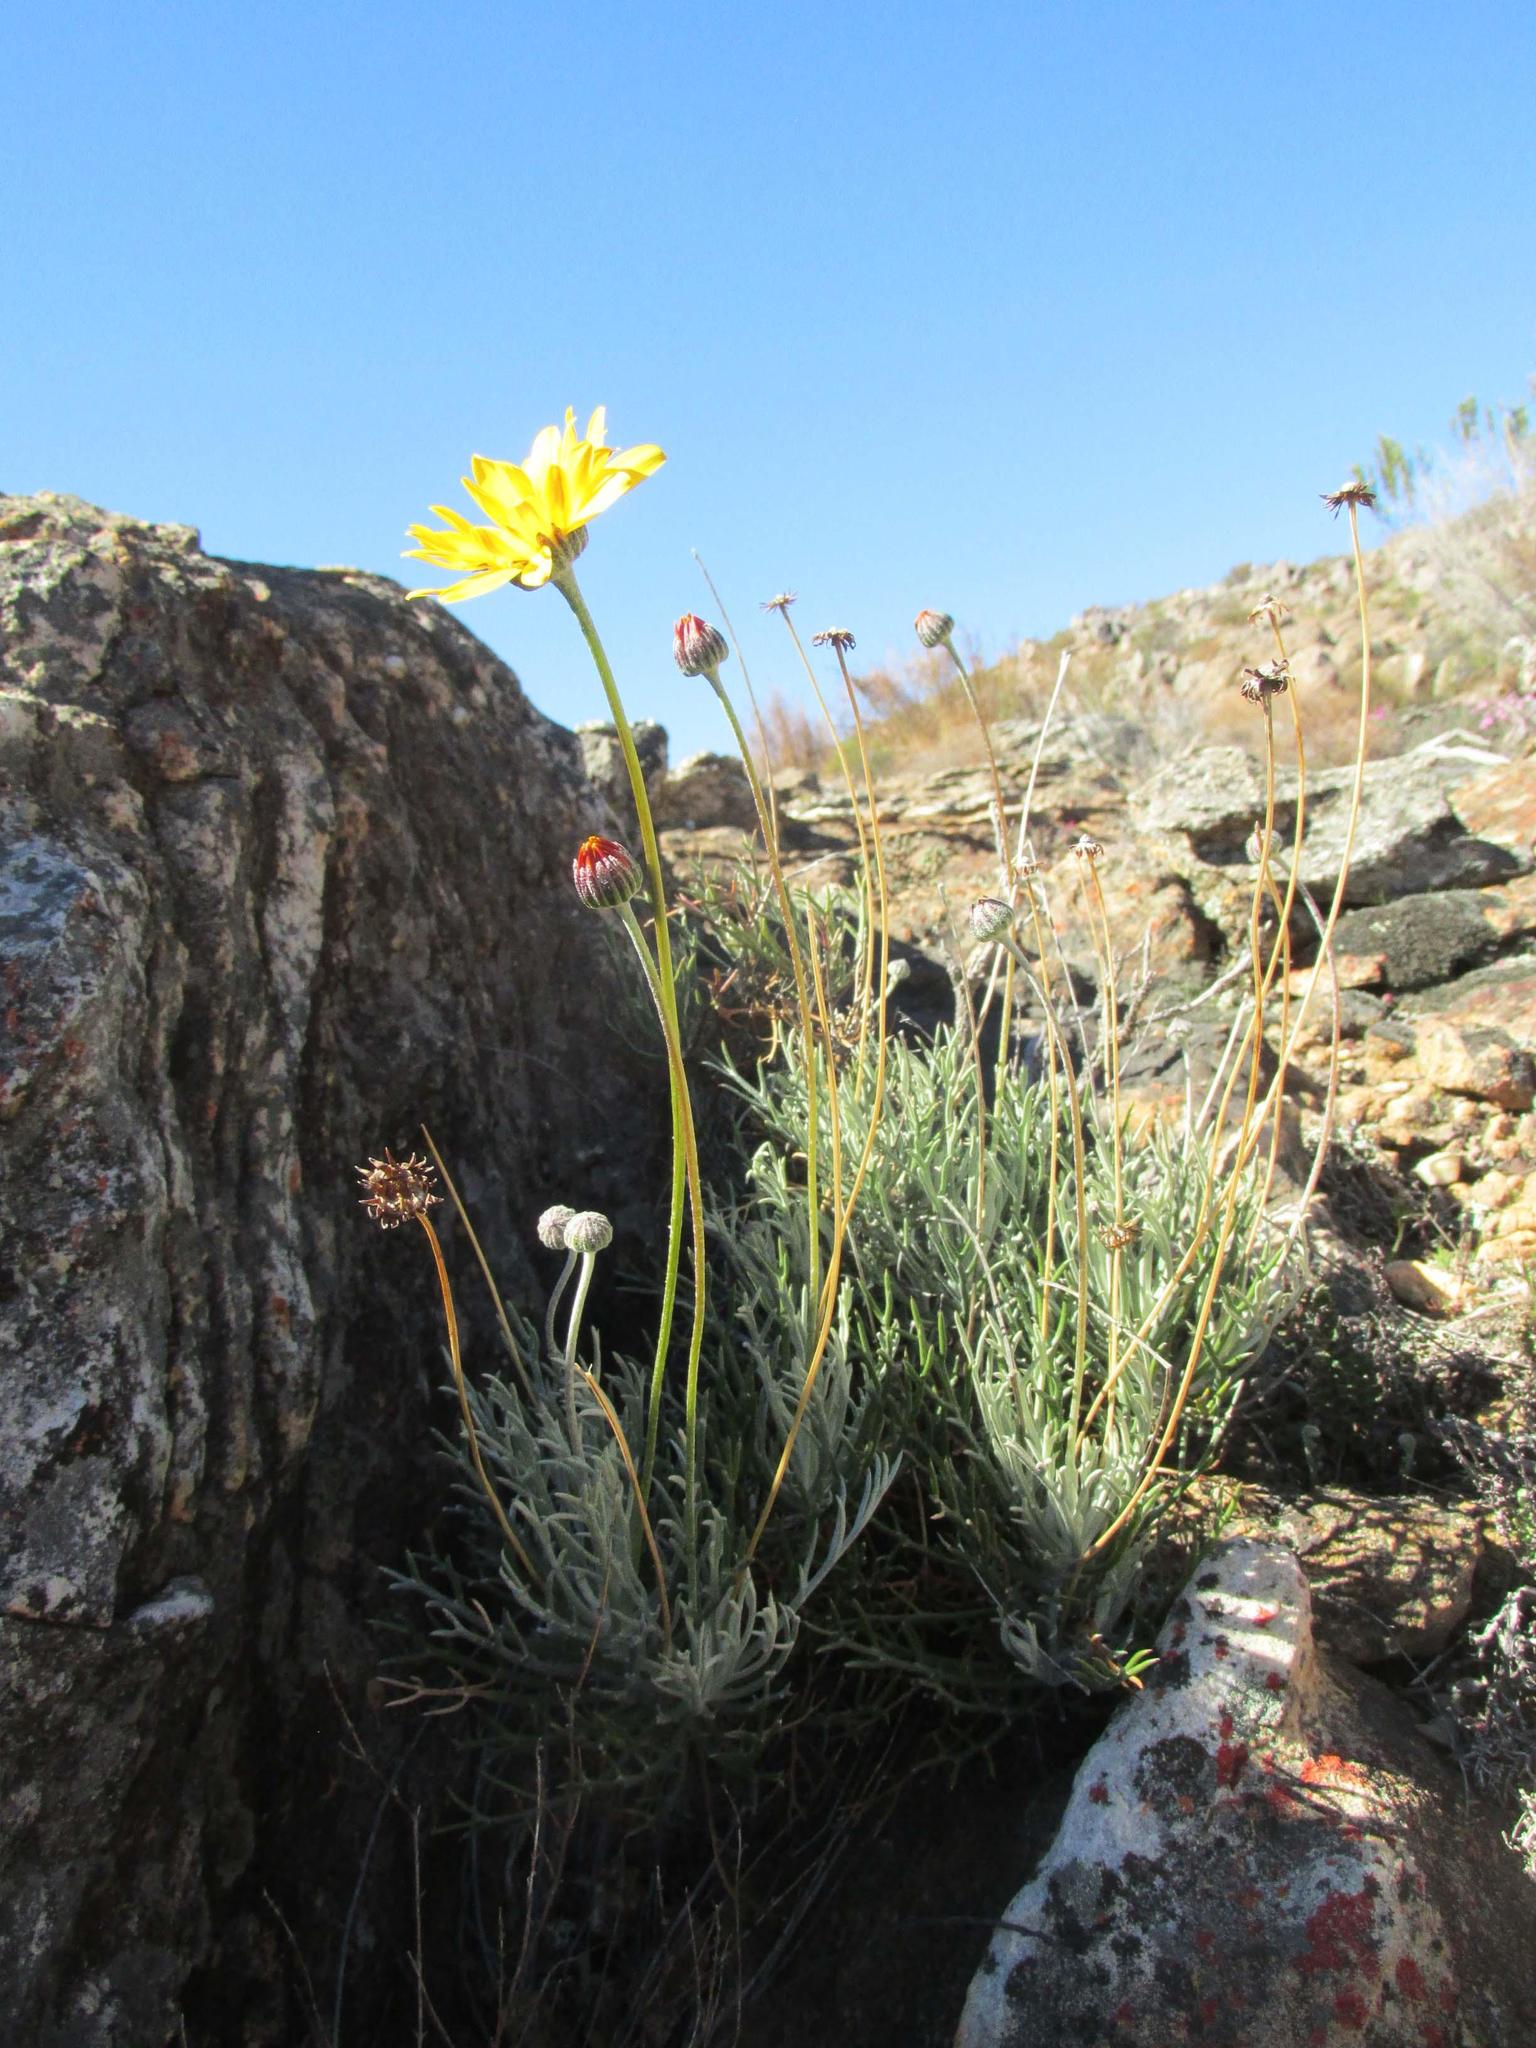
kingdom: Plantae
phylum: Tracheophyta
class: Magnoliopsida
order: Asterales
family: Asteraceae
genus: Euryops
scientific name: Euryops othonnoides
